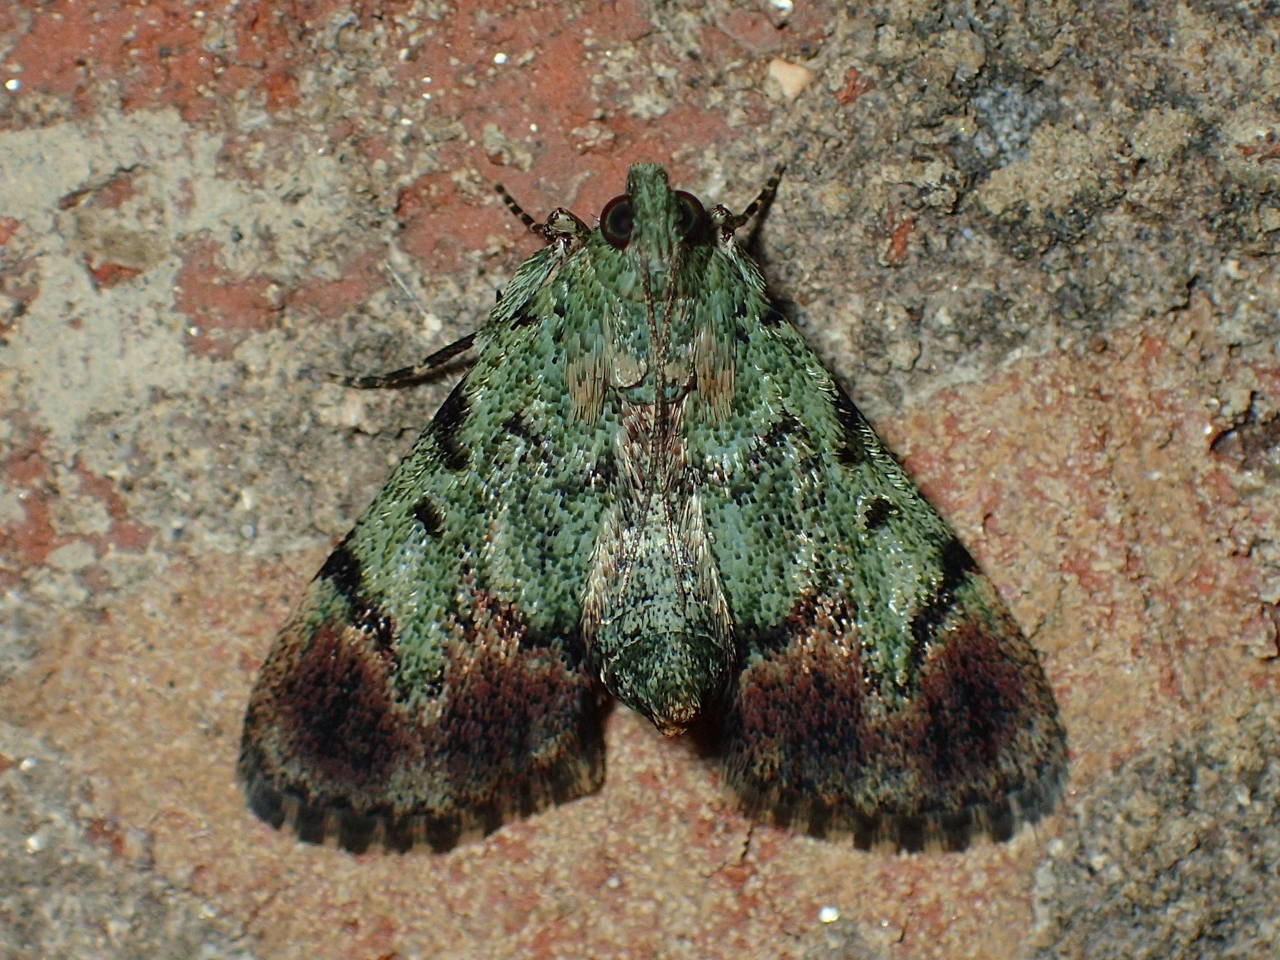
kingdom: Animalia
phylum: Arthropoda
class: Insecta
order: Lepidoptera
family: Pyralidae
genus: Epipaschia
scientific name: Epipaschia superatalis
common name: Dimorphic macalla moth
